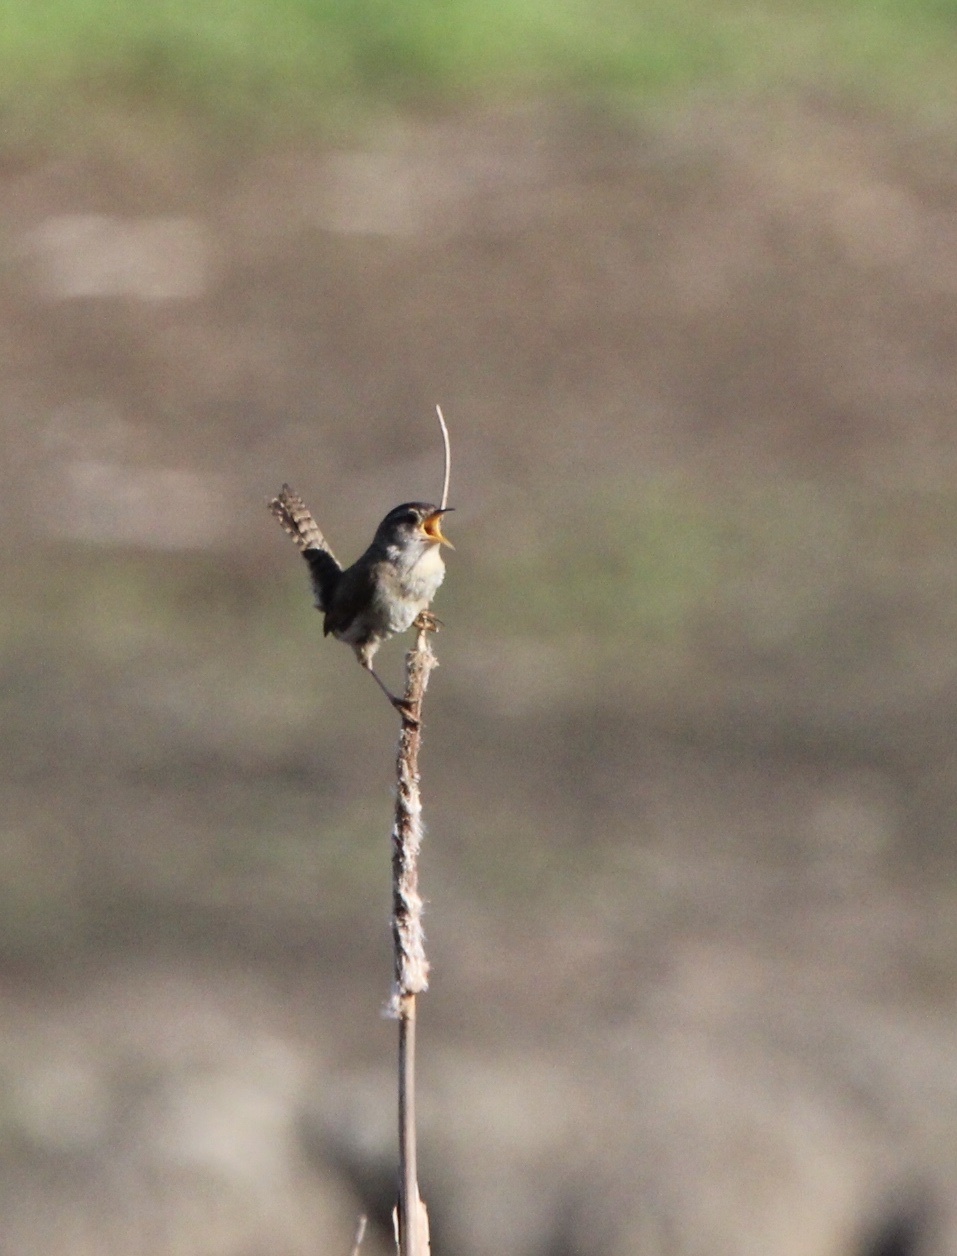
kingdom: Animalia
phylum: Chordata
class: Aves
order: Passeriformes
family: Troglodytidae
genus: Cistothorus
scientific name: Cistothorus palustris
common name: Marsh wren
